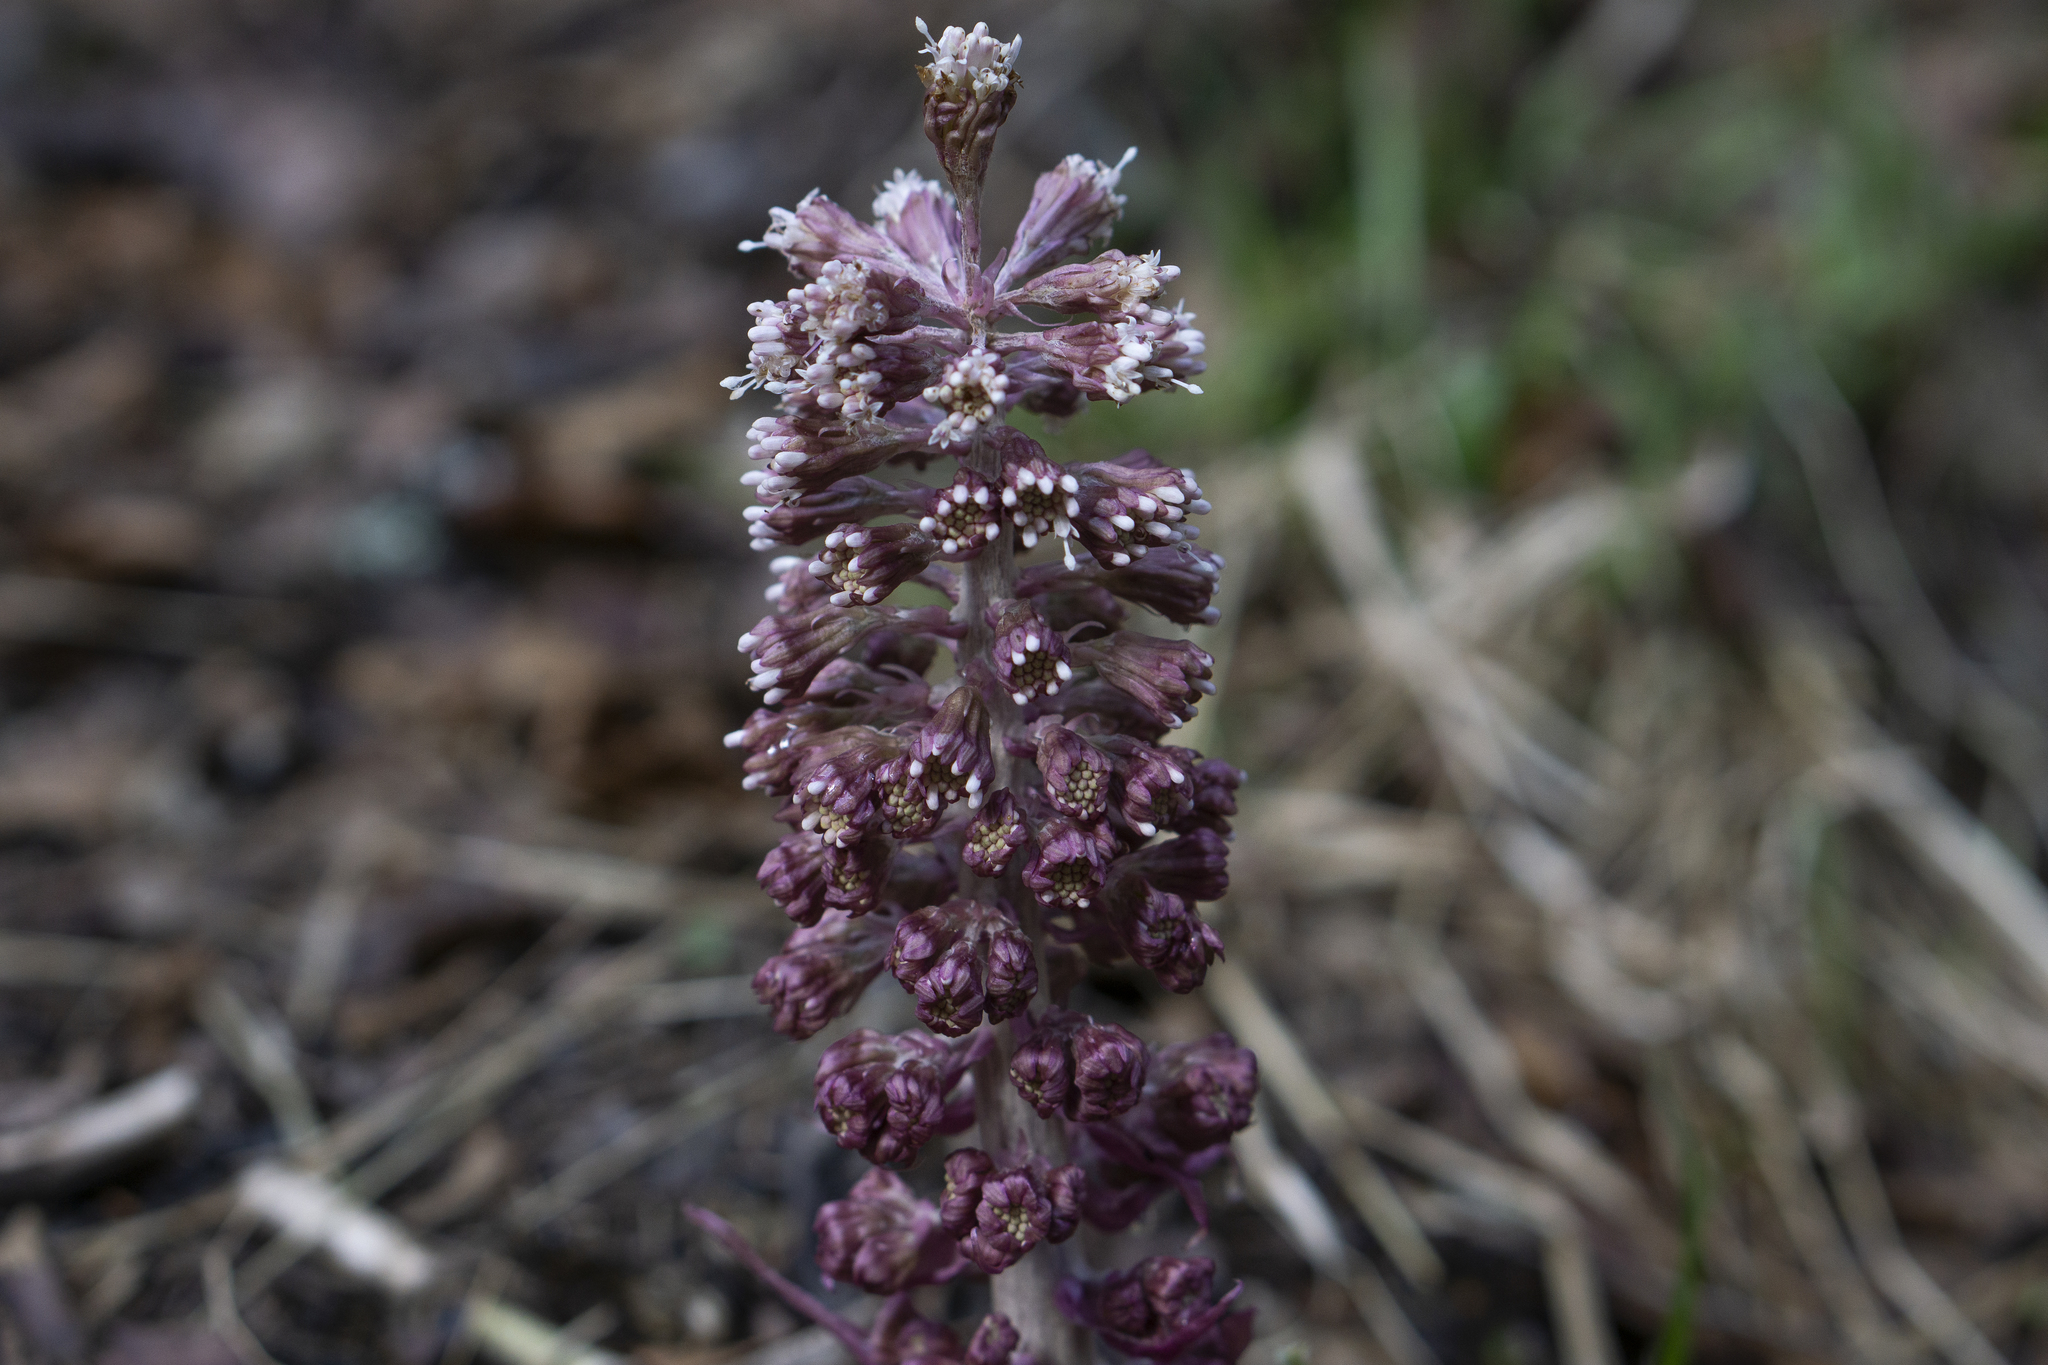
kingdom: Plantae
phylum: Tracheophyta
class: Magnoliopsida
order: Asterales
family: Asteraceae
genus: Petasites
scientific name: Petasites hybridus
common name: Butterbur
